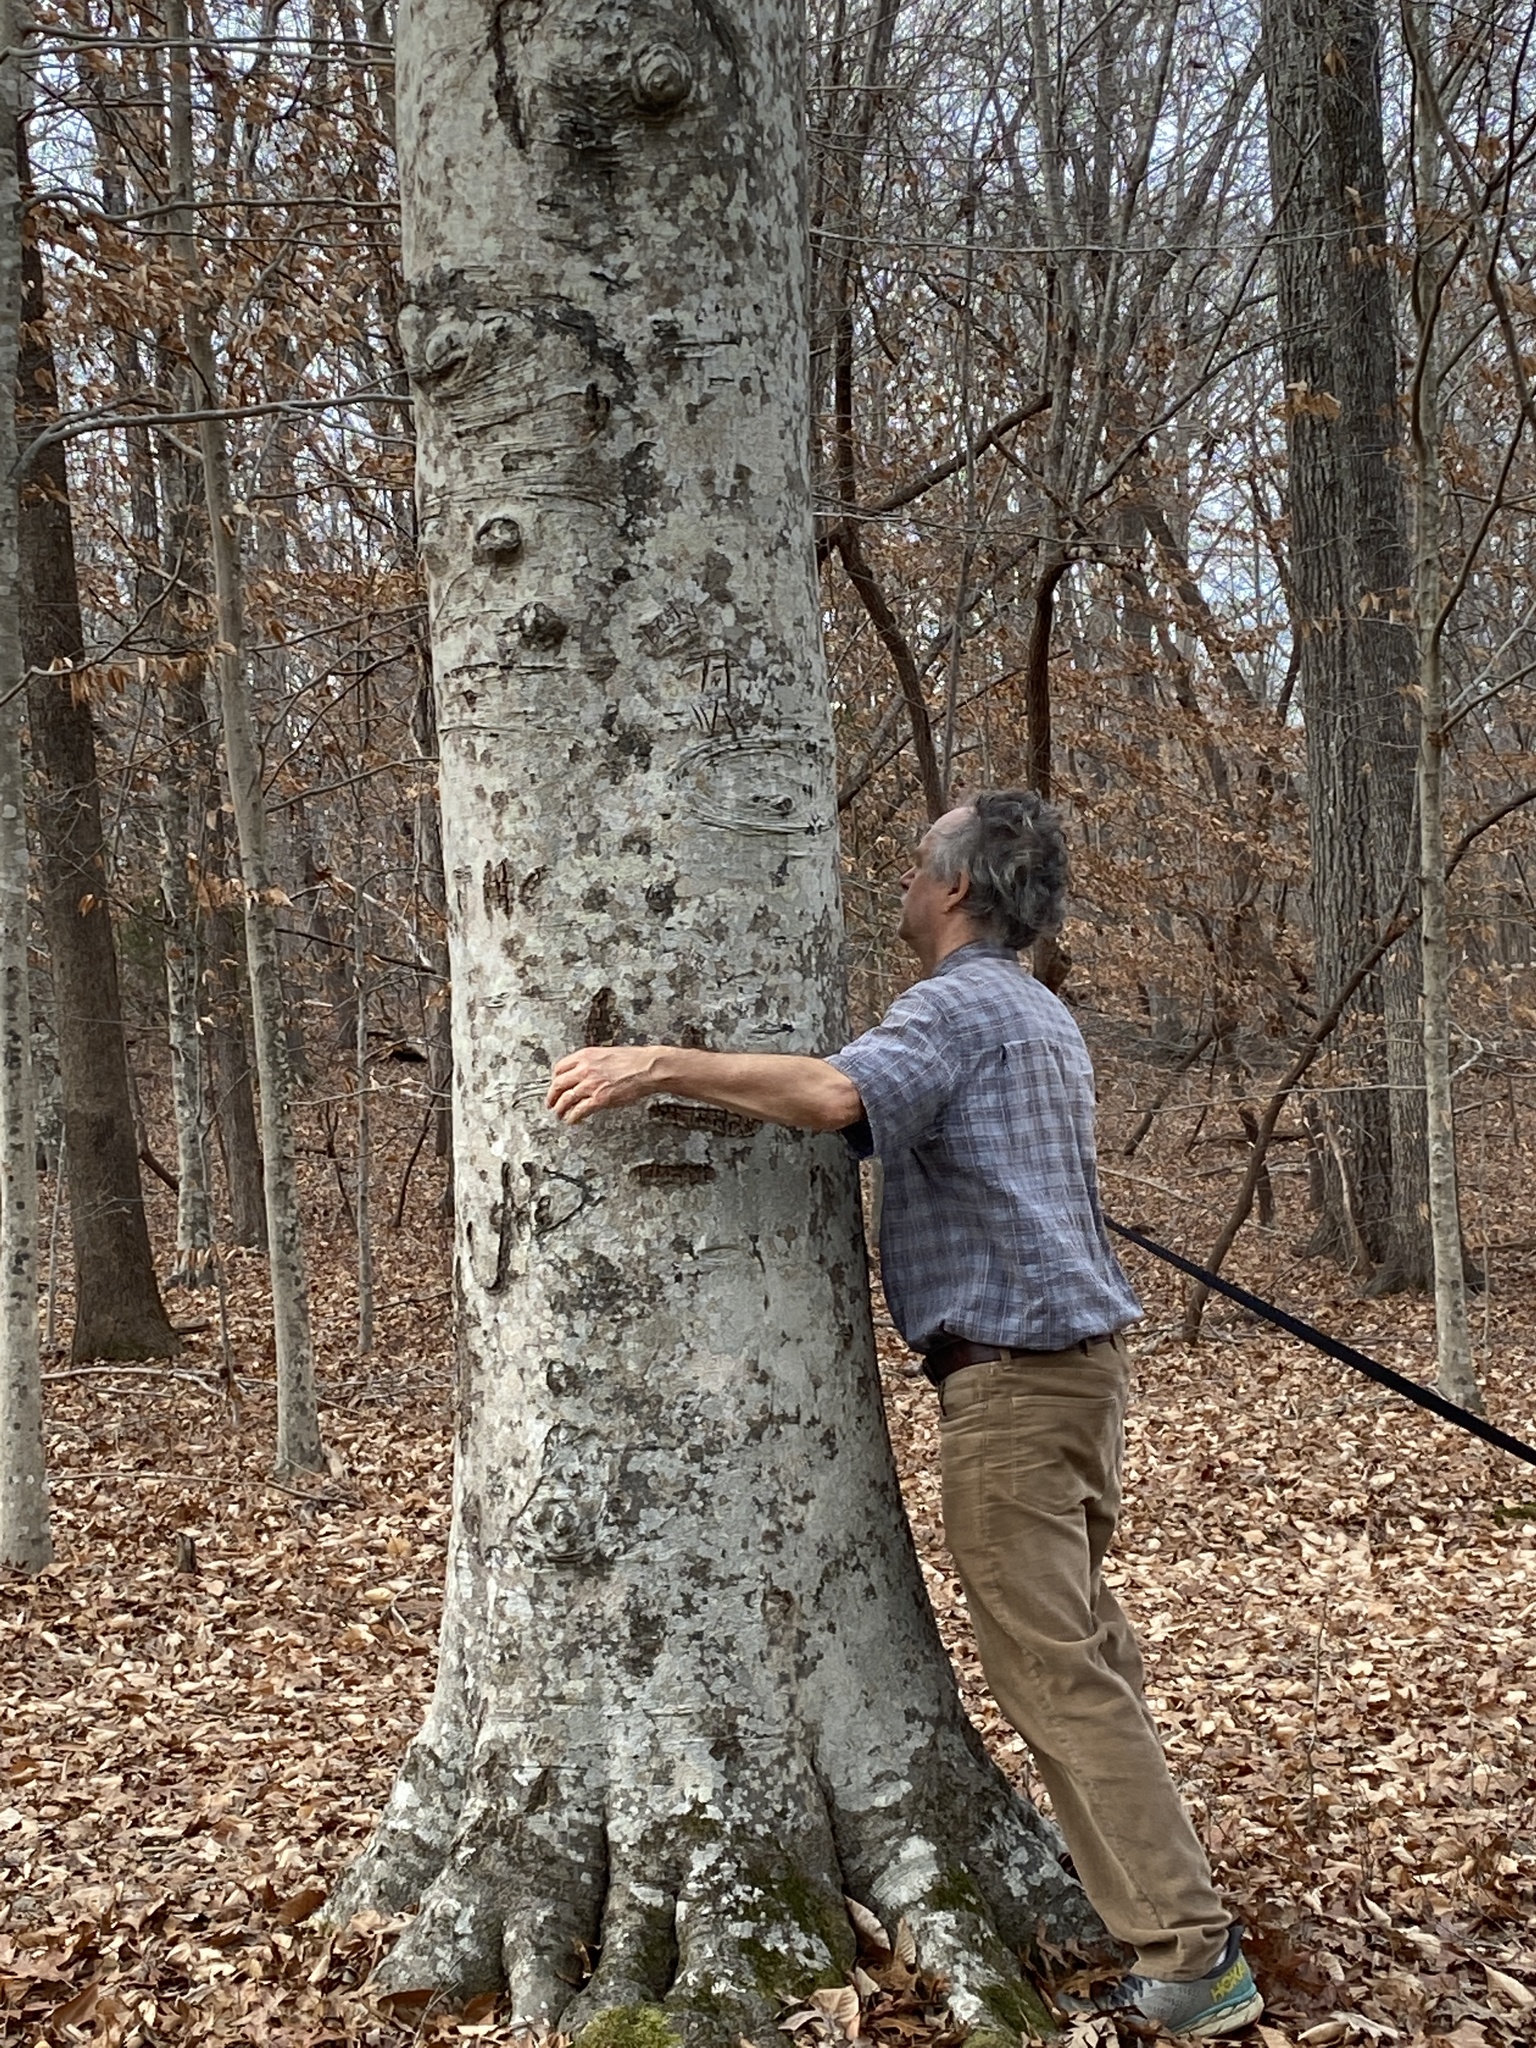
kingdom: Plantae
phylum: Tracheophyta
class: Magnoliopsida
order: Fagales
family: Fagaceae
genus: Fagus
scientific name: Fagus grandifolia
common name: American beech
